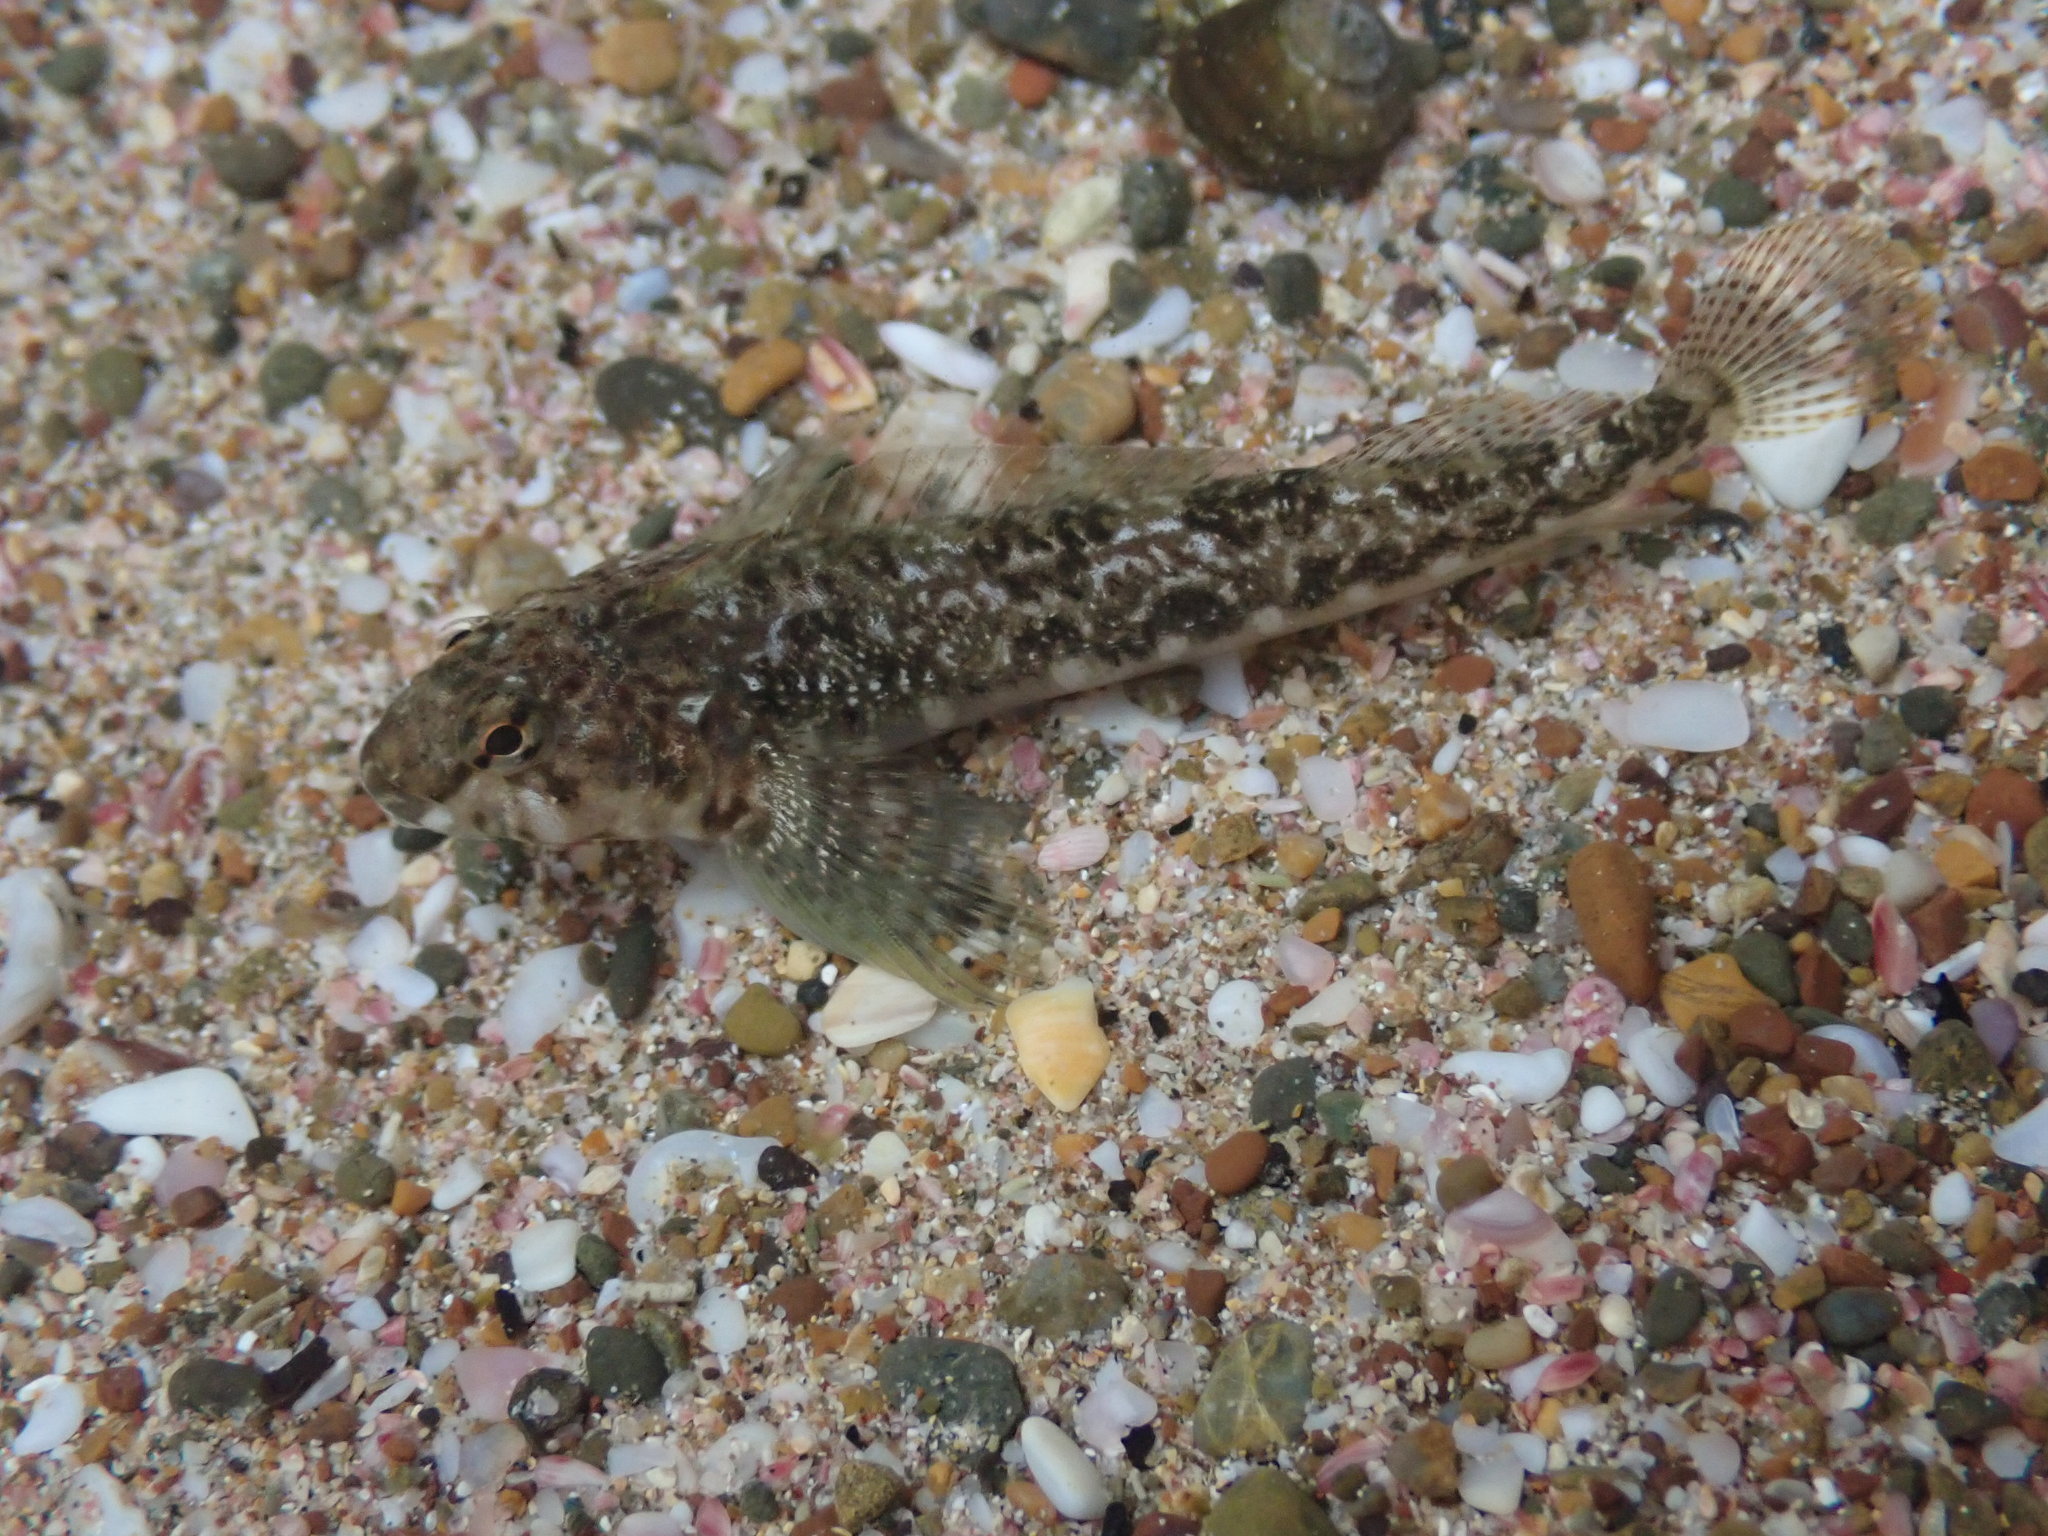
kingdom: Animalia
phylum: Chordata
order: Perciformes
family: Tripterygiidae
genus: Bellapiscis
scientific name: Bellapiscis medius
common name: Twister
